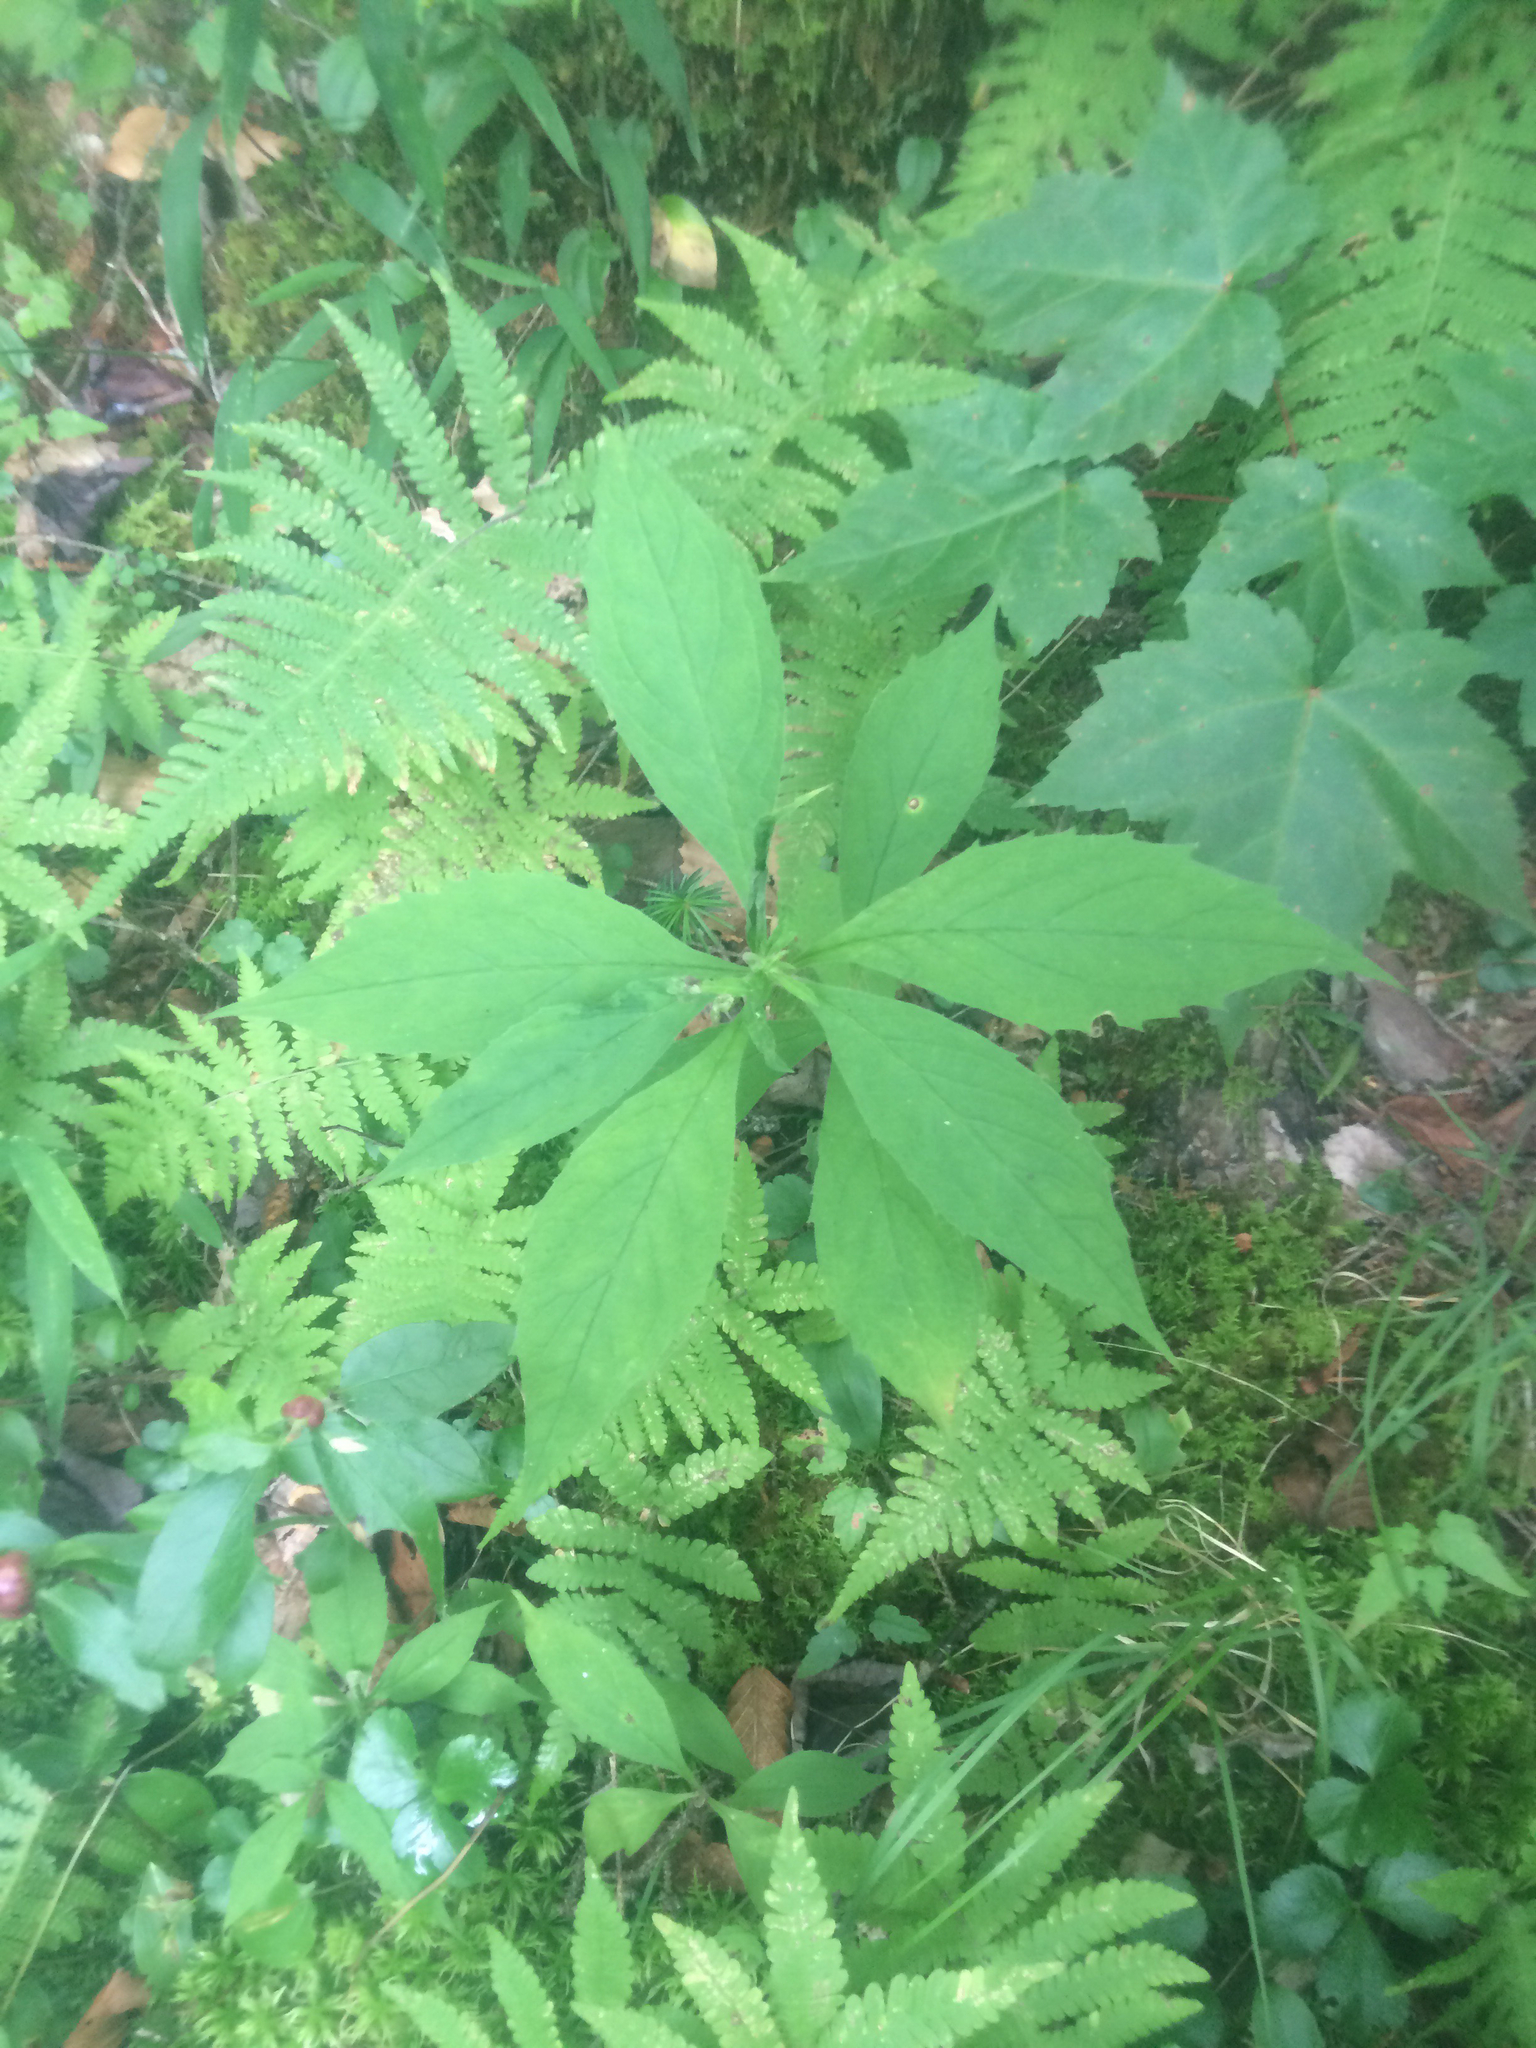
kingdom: Plantae
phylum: Tracheophyta
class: Magnoliopsida
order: Asterales
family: Asteraceae
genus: Oclemena
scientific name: Oclemena acuminata
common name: Mountain aster
